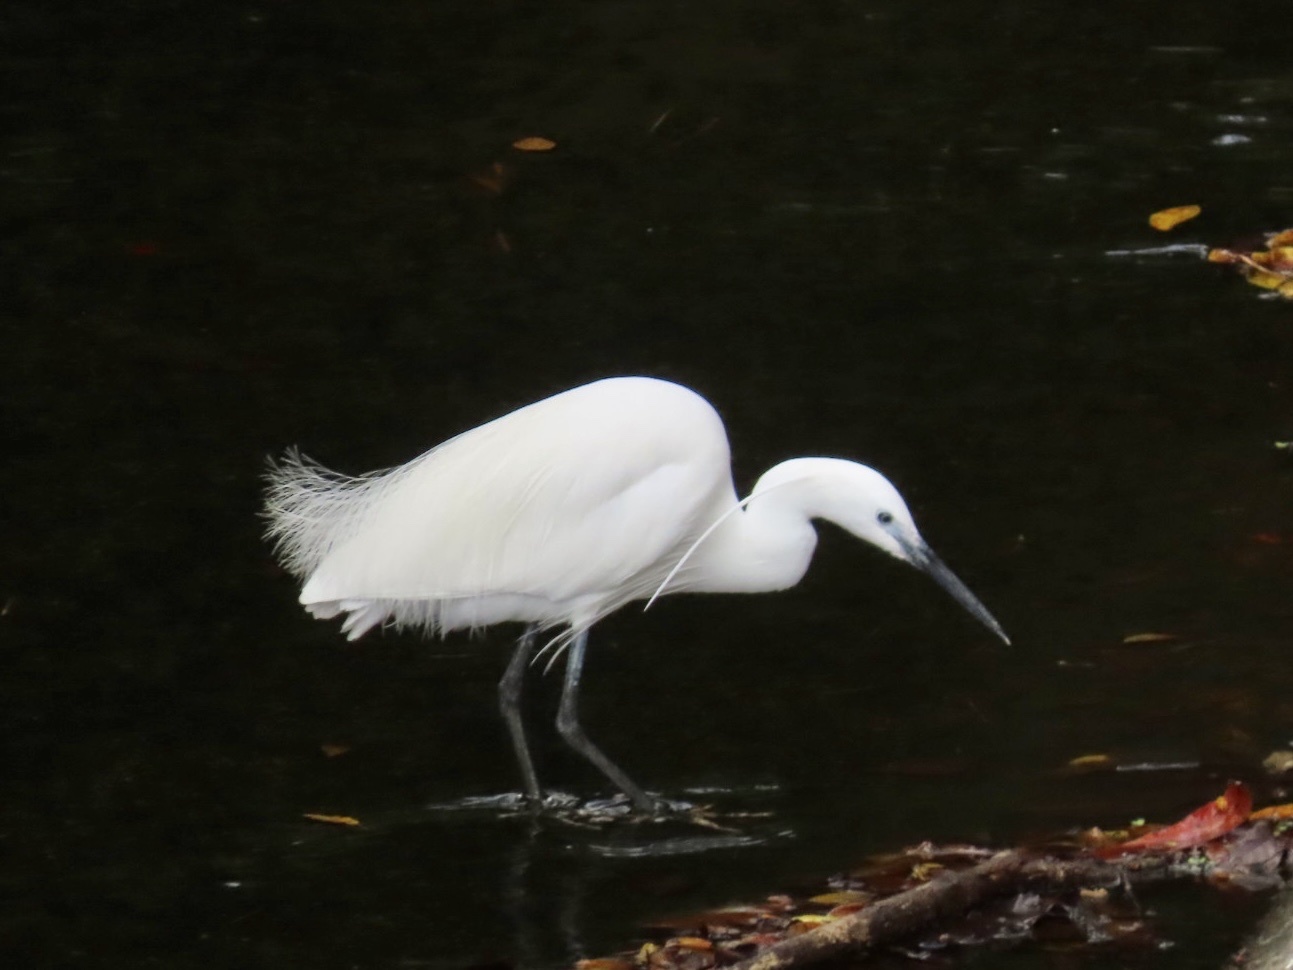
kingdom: Animalia
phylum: Chordata
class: Aves
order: Pelecaniformes
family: Ardeidae
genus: Egretta
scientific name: Egretta garzetta
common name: Little egret
